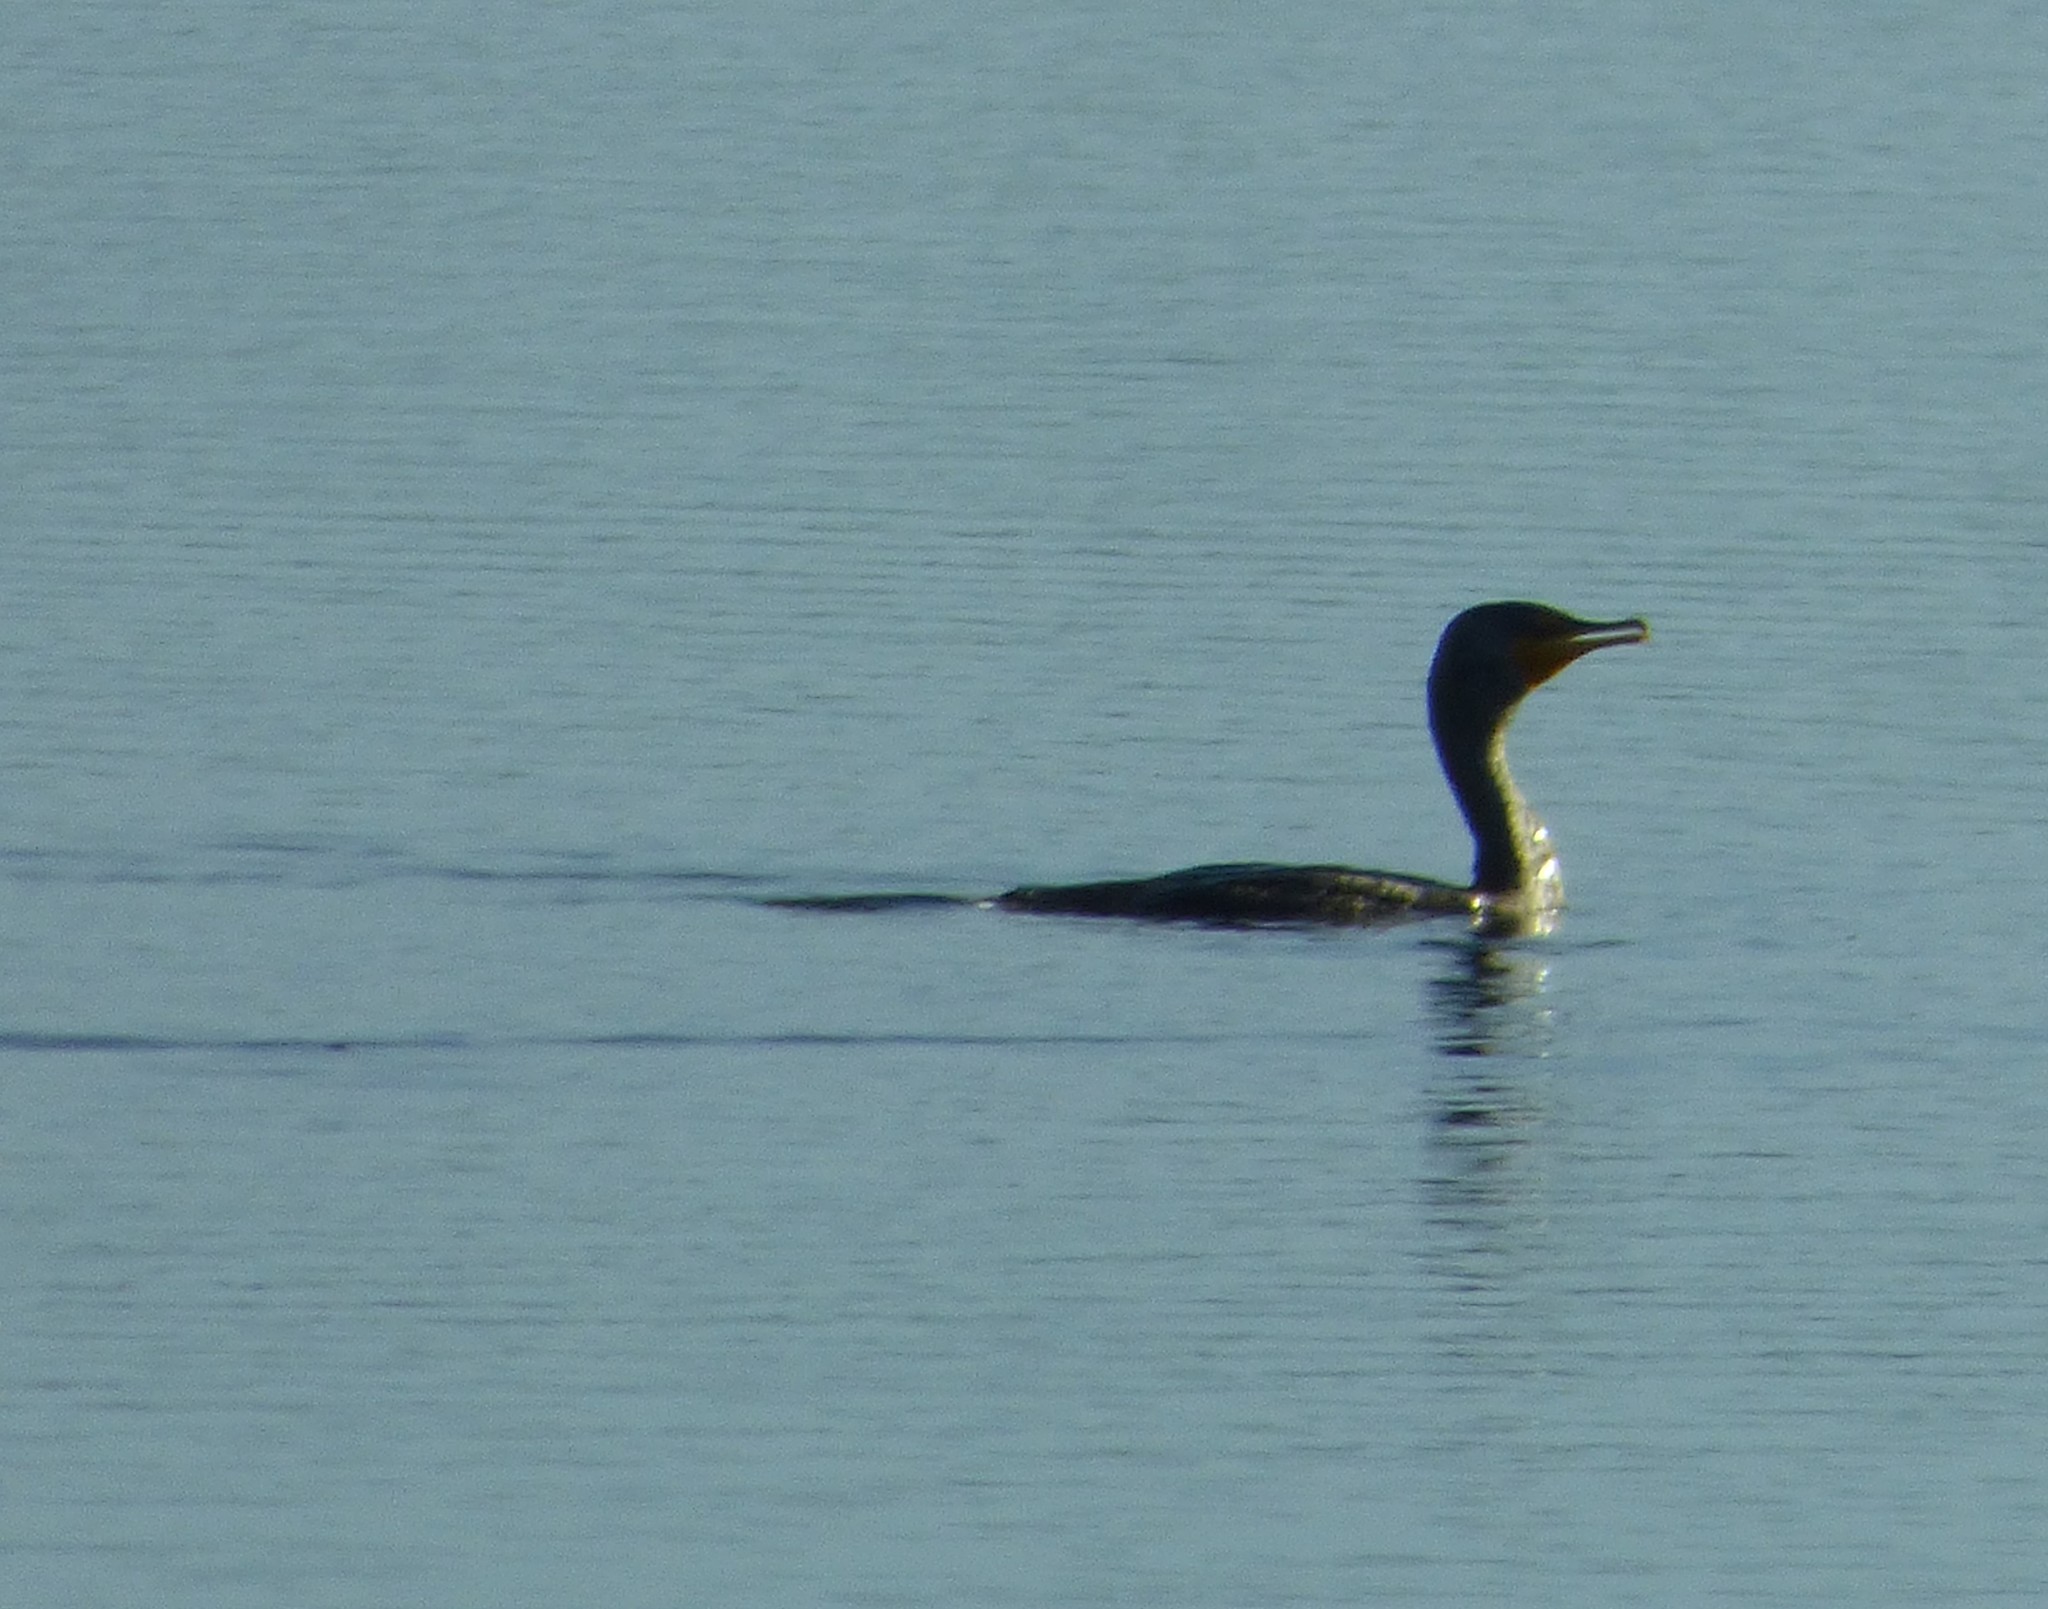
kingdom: Animalia
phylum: Chordata
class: Aves
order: Suliformes
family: Phalacrocoracidae
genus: Phalacrocorax
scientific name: Phalacrocorax auritus
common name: Double-crested cormorant
